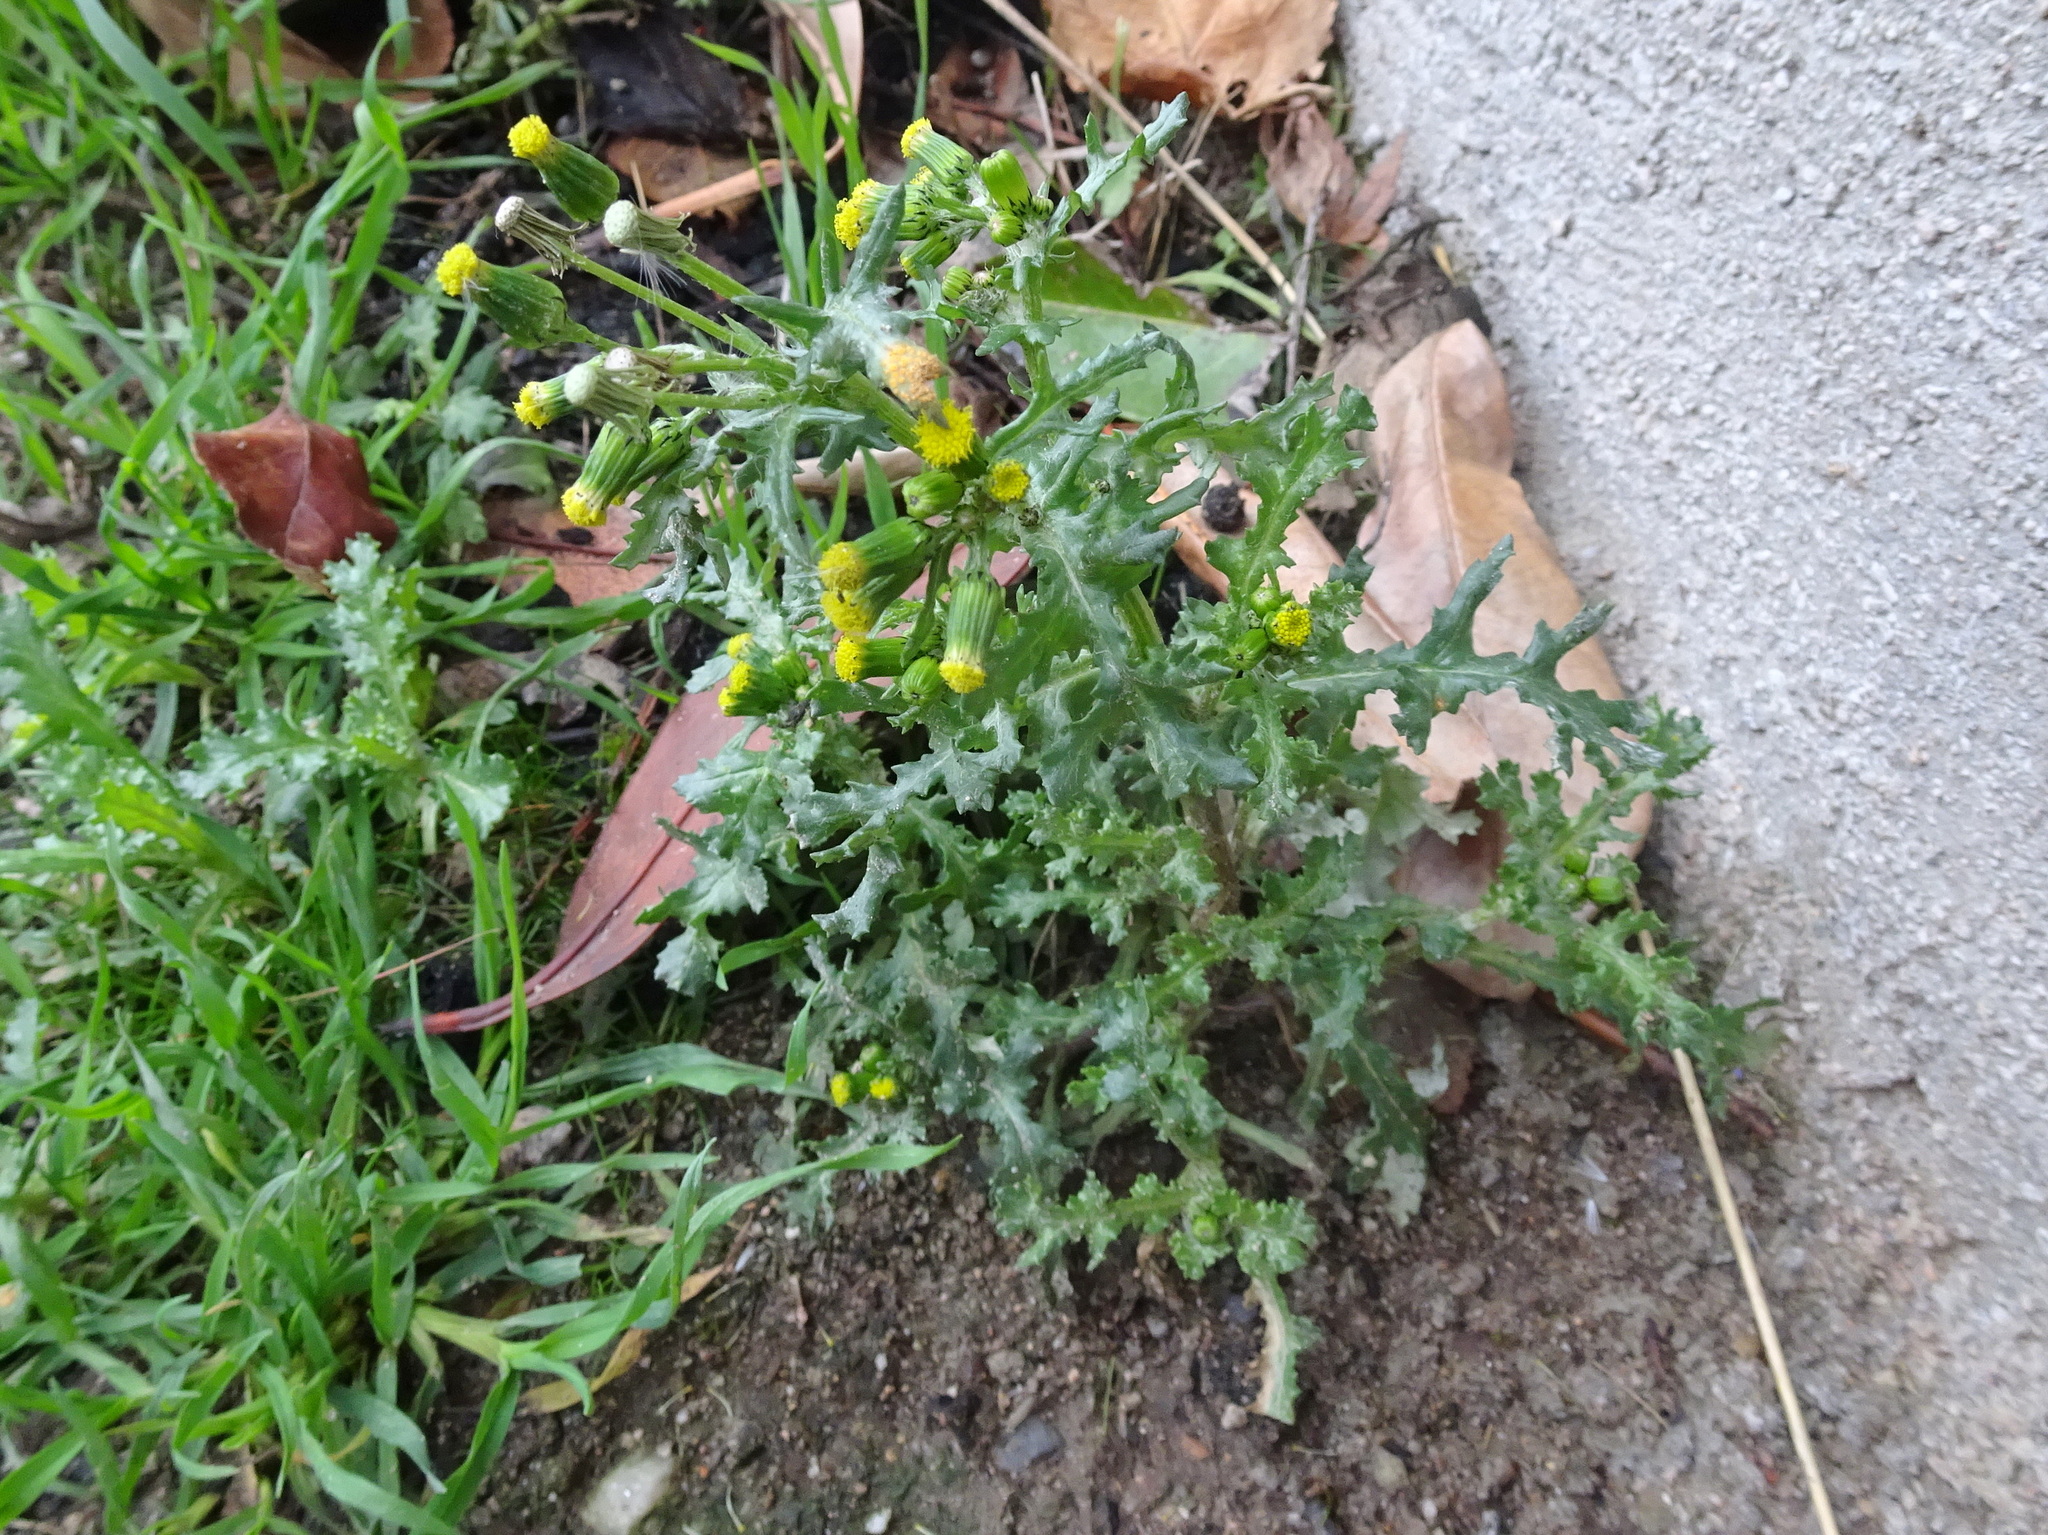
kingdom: Plantae
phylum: Tracheophyta
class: Magnoliopsida
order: Asterales
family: Asteraceae
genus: Senecio
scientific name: Senecio vulgaris
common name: Old-man-in-the-spring
